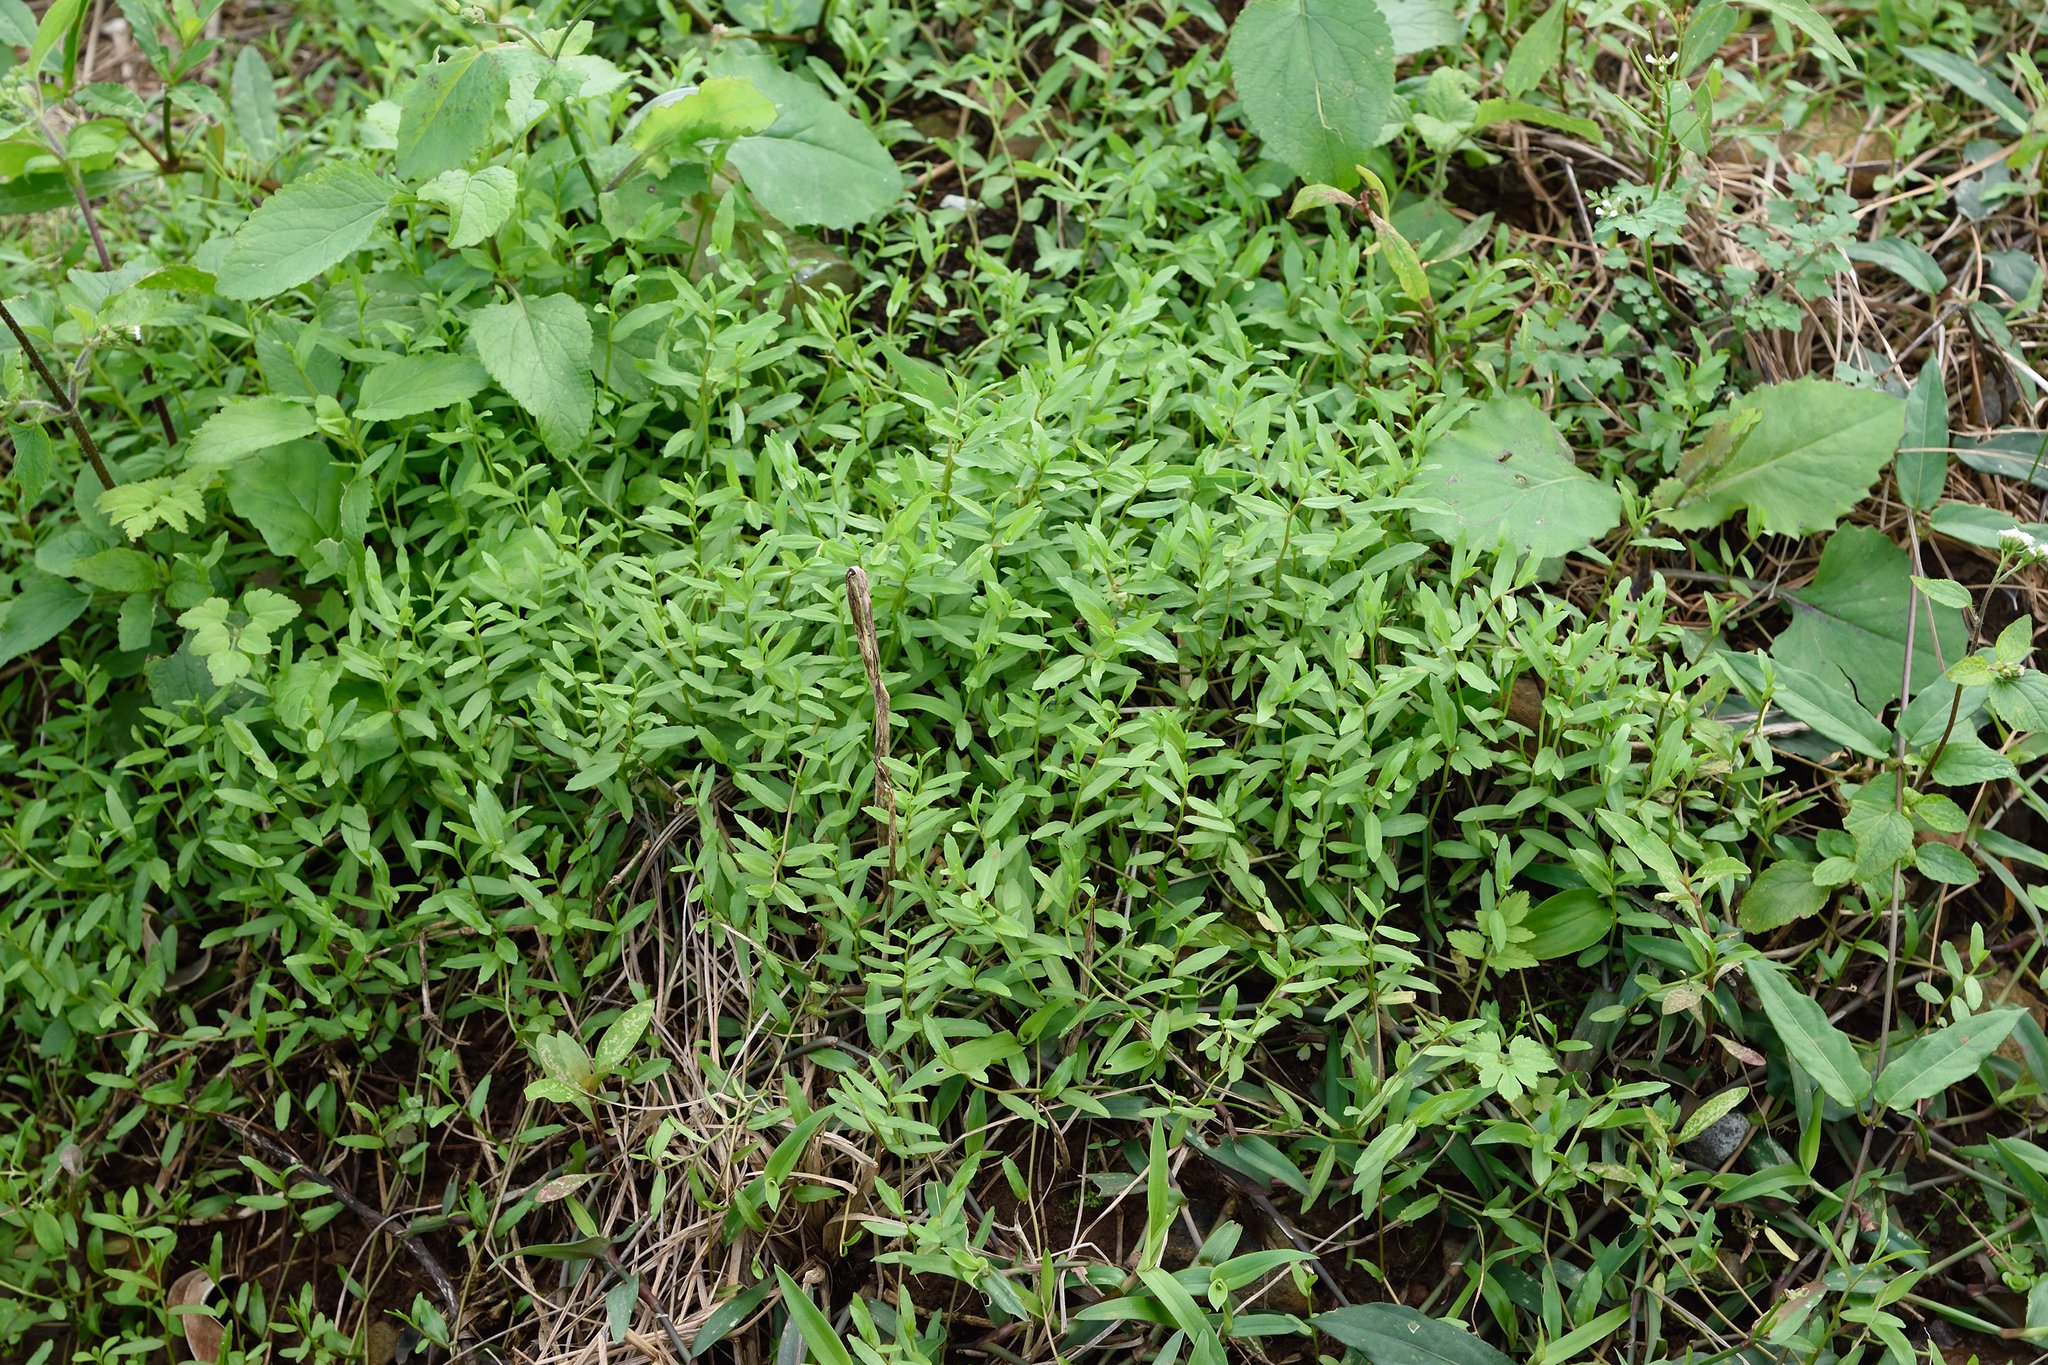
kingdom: Plantae
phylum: Tracheophyta
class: Magnoliopsida
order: Asterales
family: Campanulaceae
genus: Lobelia
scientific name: Lobelia chinensis
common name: Chinese lobelia
